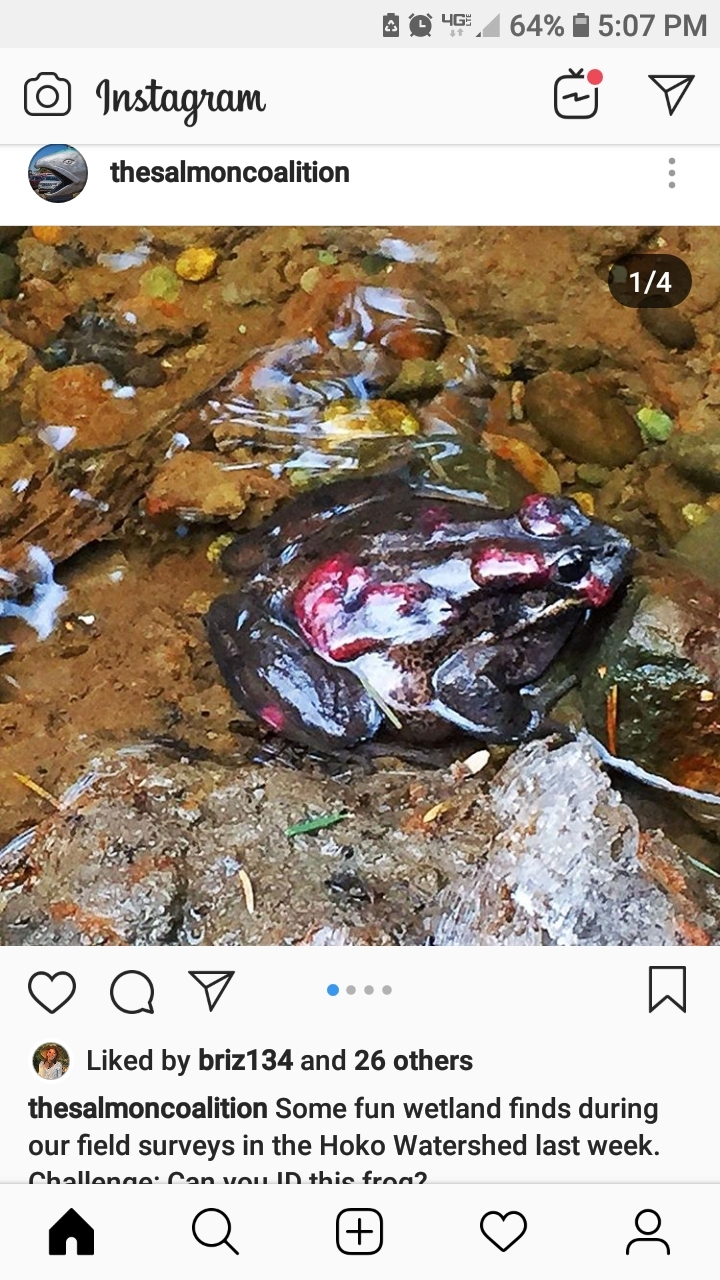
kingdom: Animalia
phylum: Chordata
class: Amphibia
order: Anura
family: Ranidae
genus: Rana
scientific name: Rana aurora
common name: Red-legged frog
